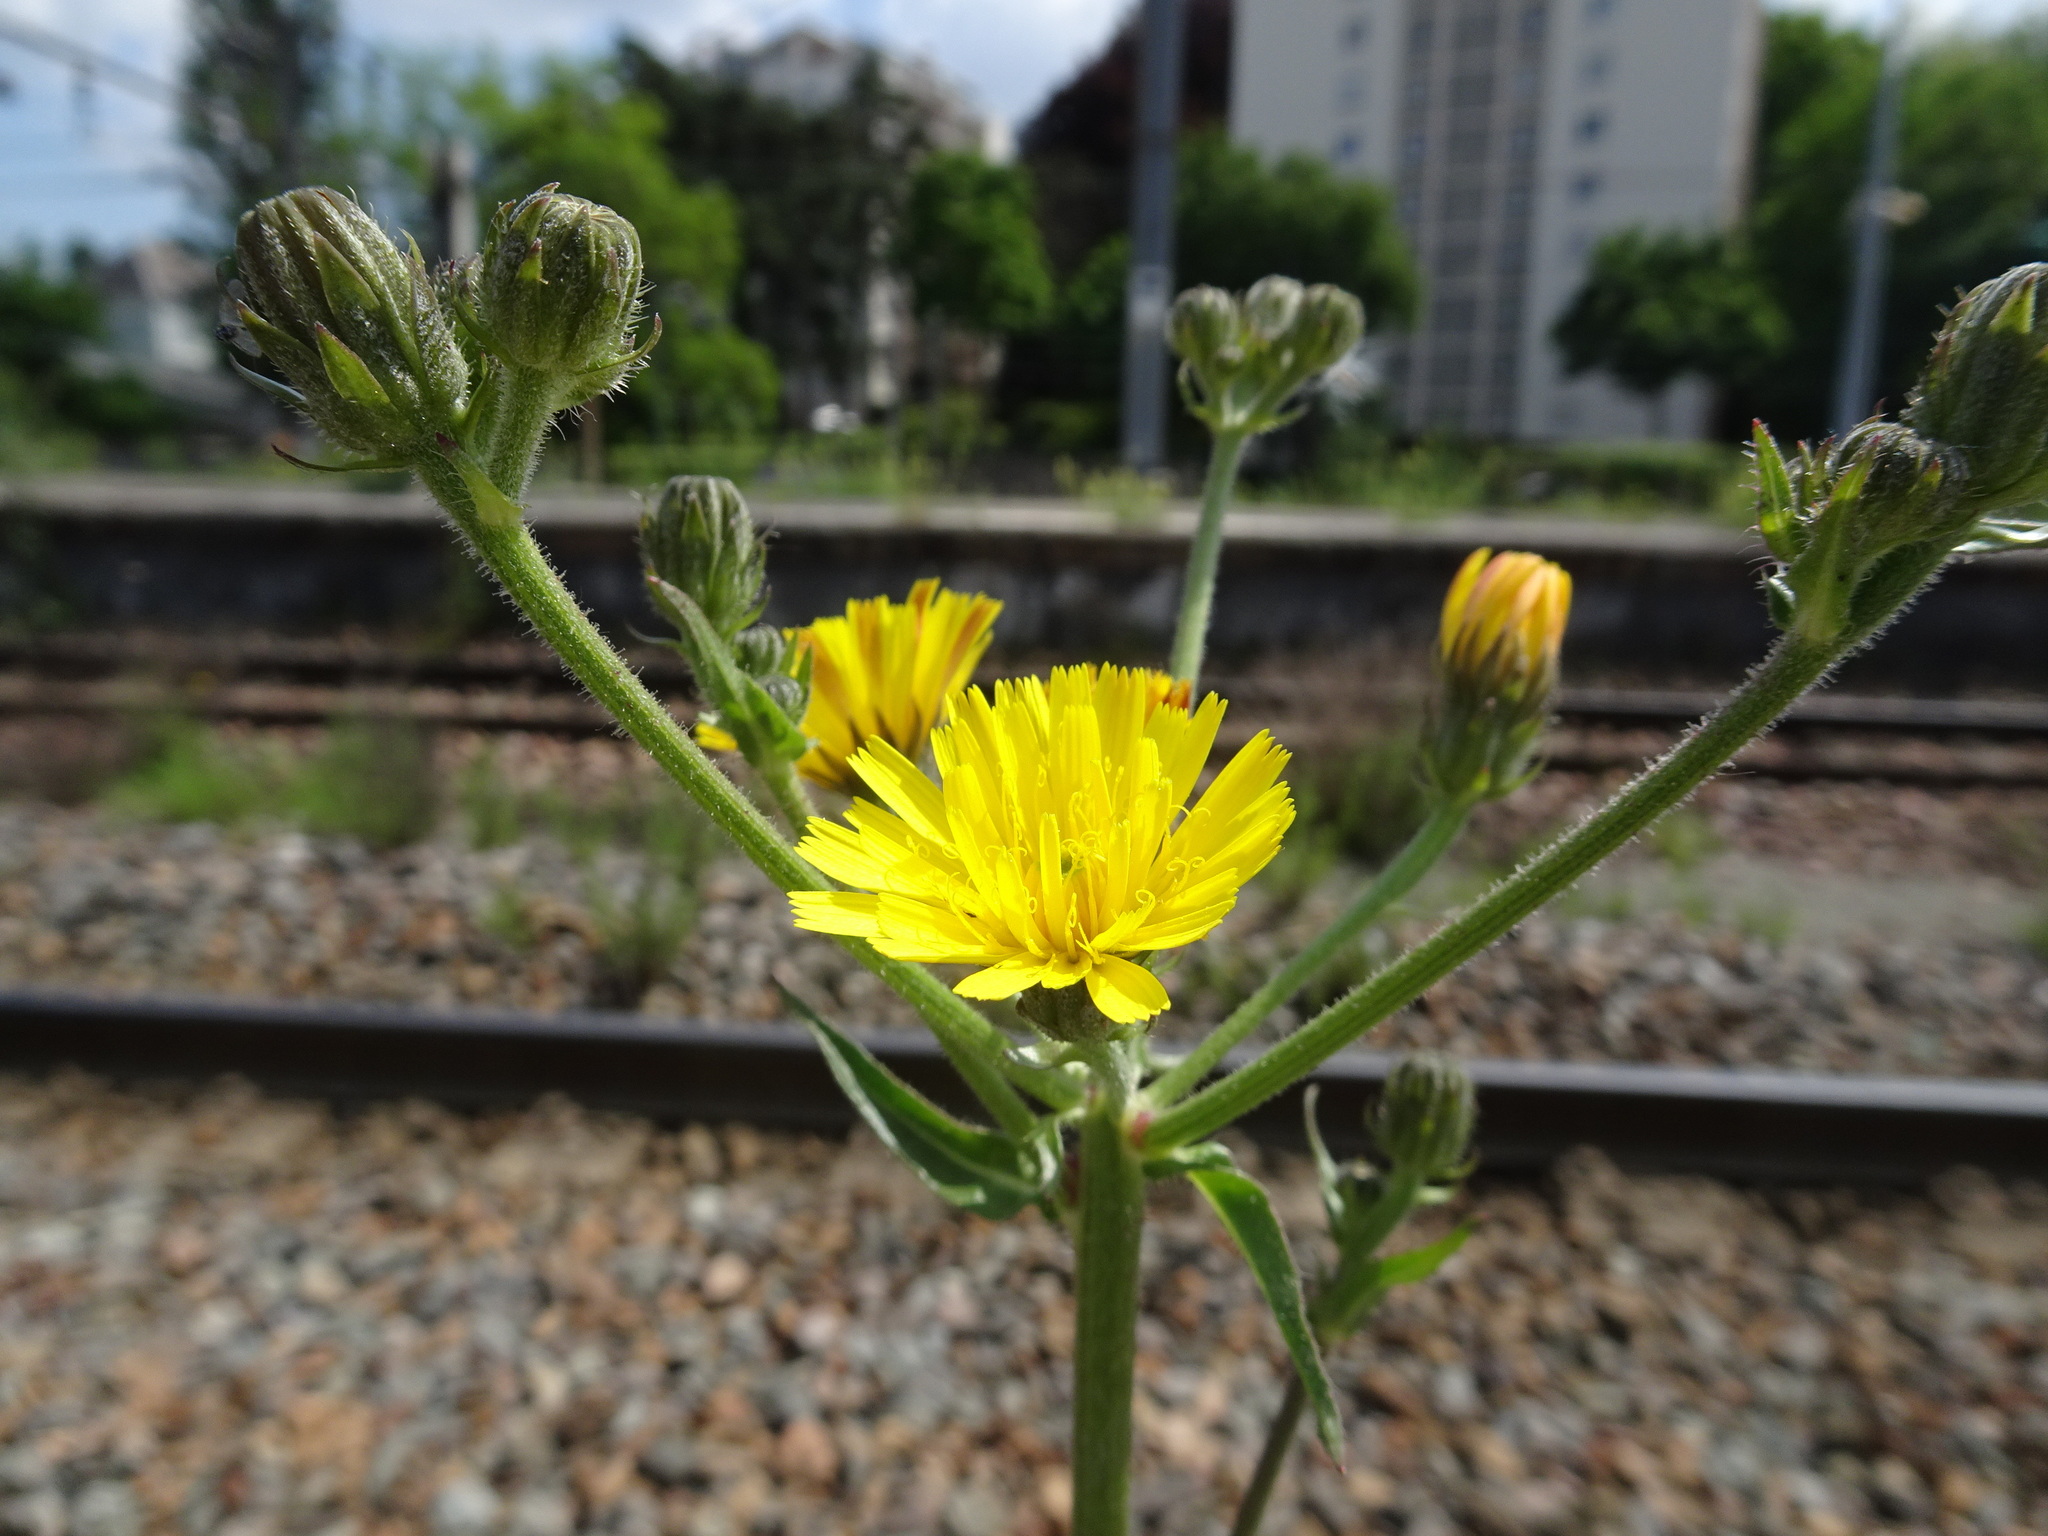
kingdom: Plantae
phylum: Tracheophyta
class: Magnoliopsida
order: Asterales
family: Asteraceae
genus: Picris
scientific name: Picris hieracioides
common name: Hawkweed oxtongue
